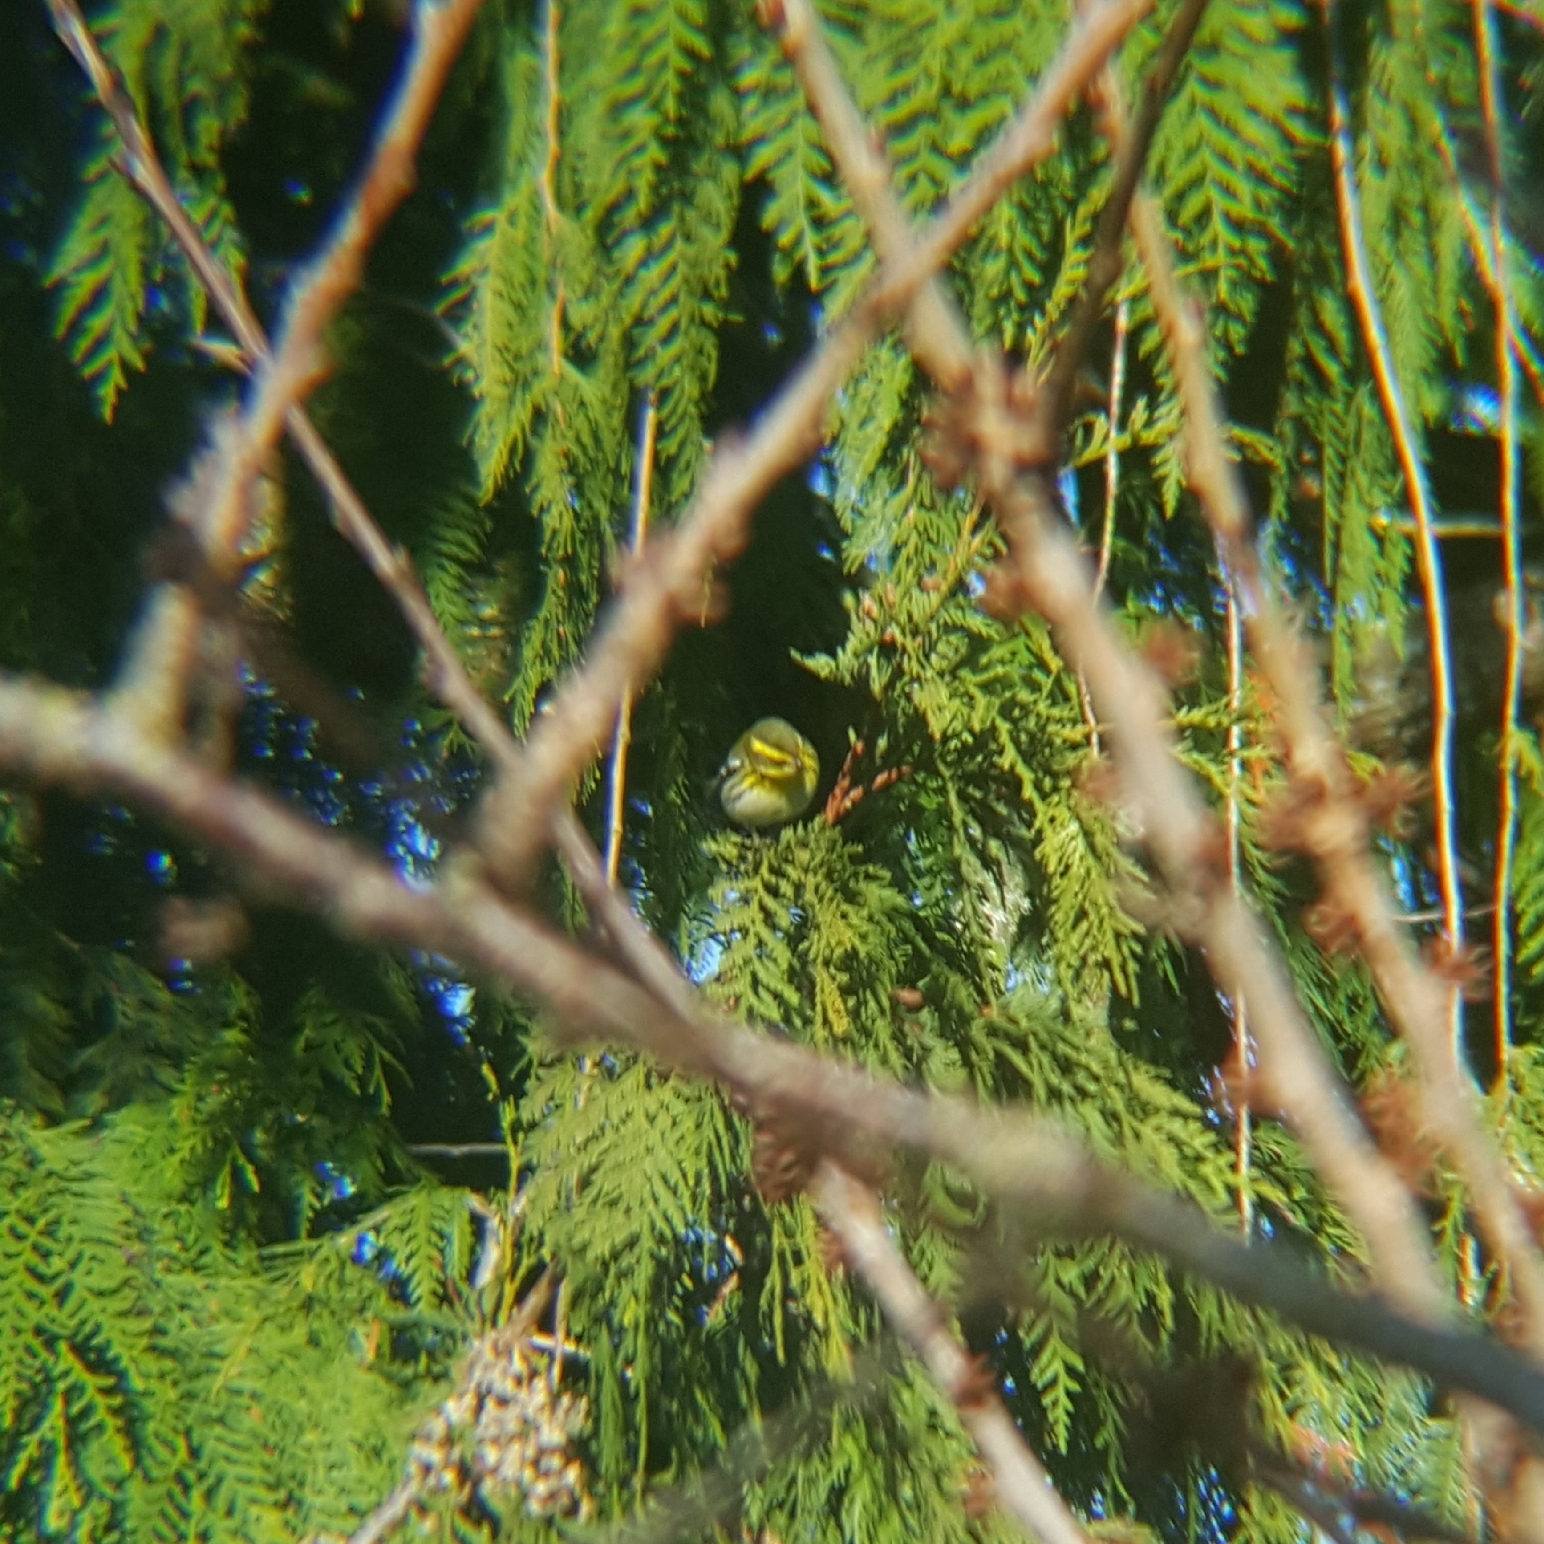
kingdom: Animalia
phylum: Chordata
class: Aves
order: Passeriformes
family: Parulidae
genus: Setophaga
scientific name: Setophaga townsendi
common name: Townsend's warbler
